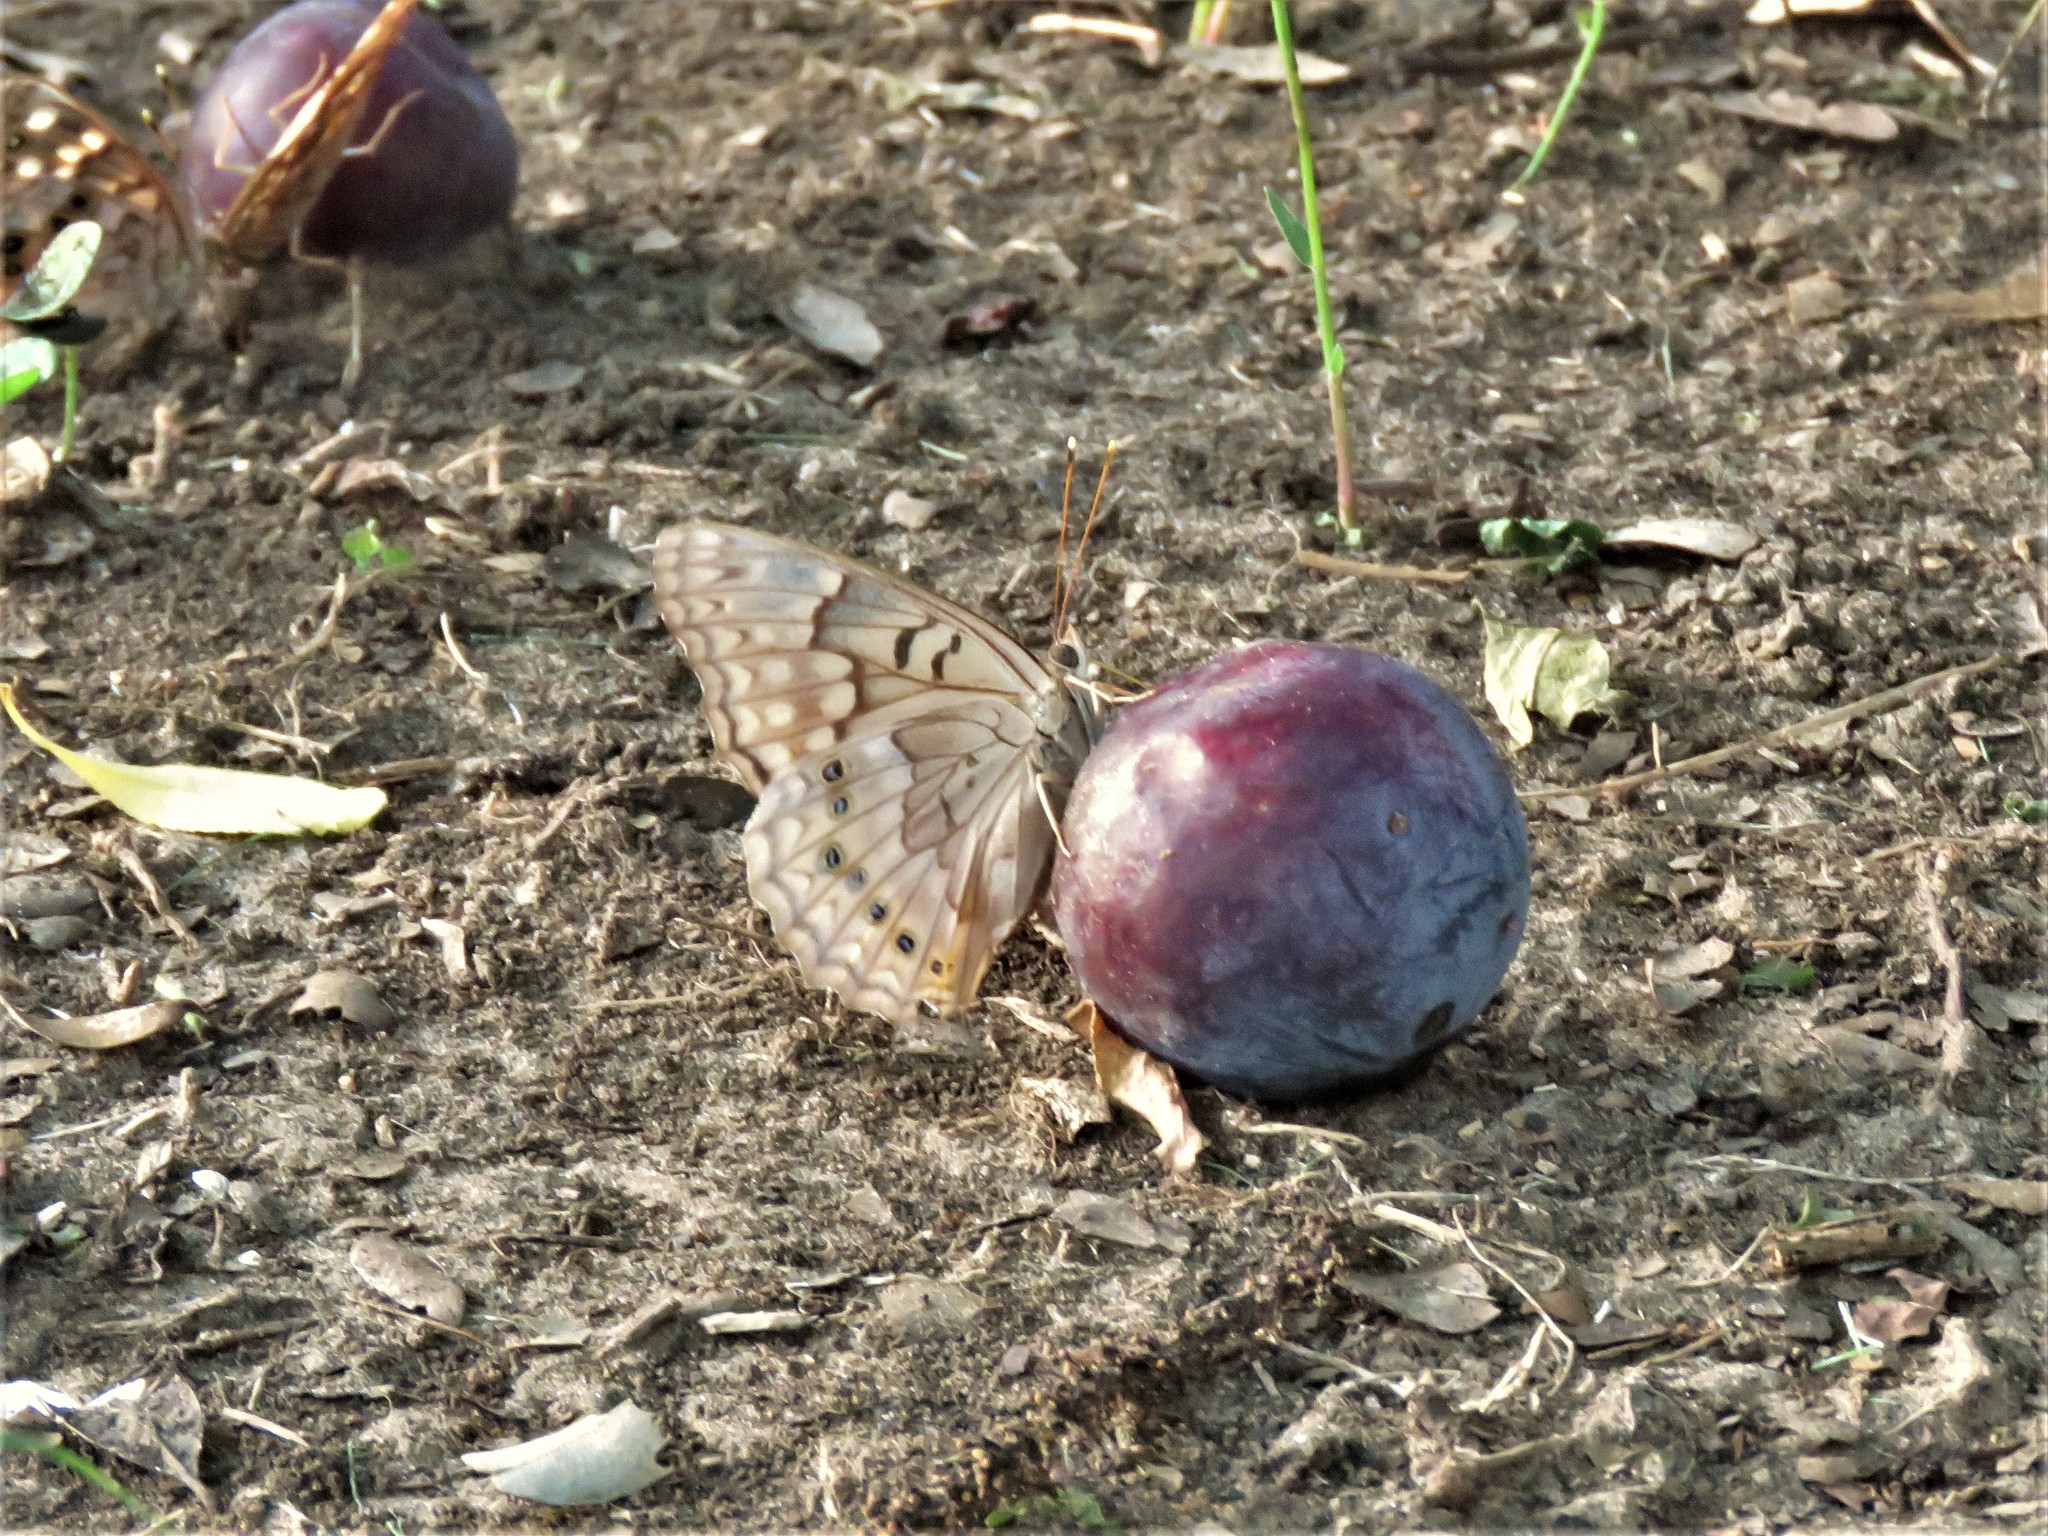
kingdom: Animalia
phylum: Arthropoda
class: Insecta
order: Lepidoptera
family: Nymphalidae
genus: Asterocampa
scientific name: Asterocampa clyton
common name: Tawny emperor
